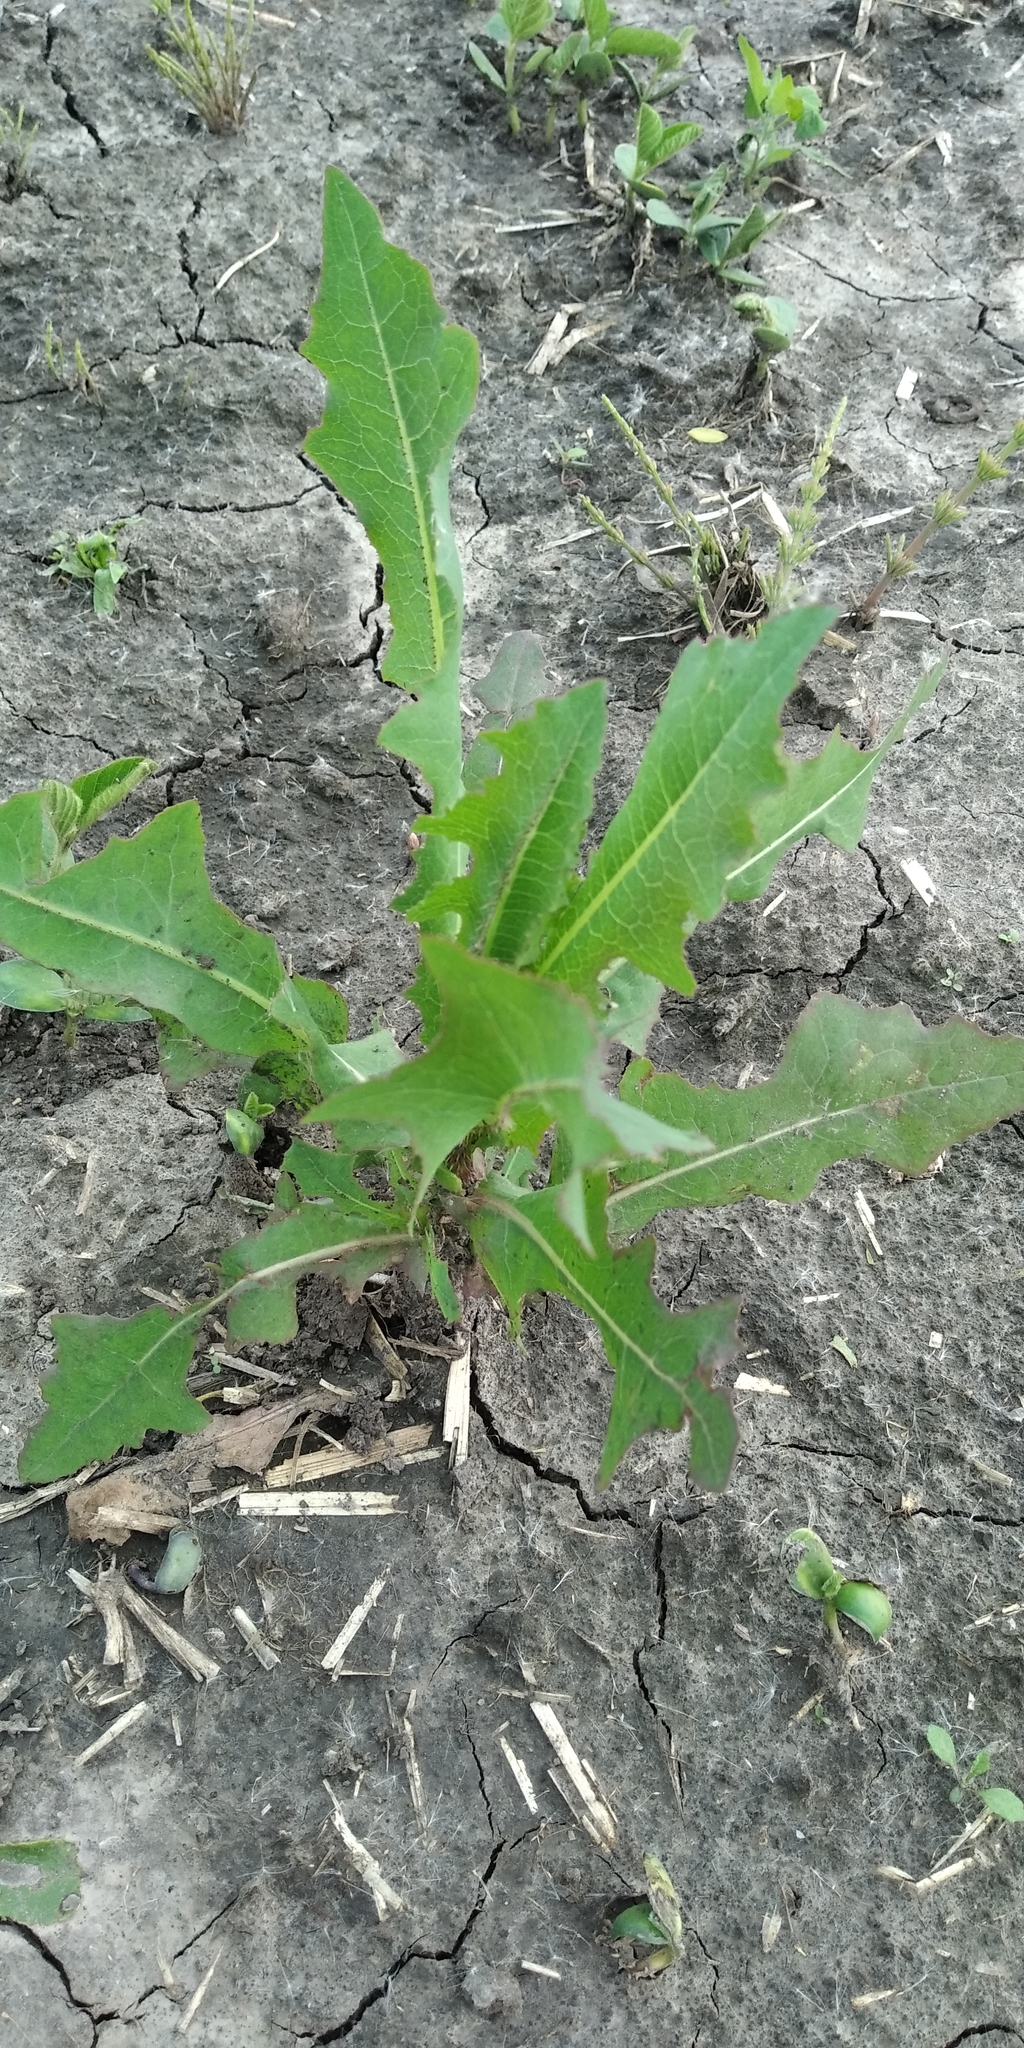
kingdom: Plantae
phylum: Tracheophyta
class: Magnoliopsida
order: Asterales
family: Asteraceae
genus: Lactuca
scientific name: Lactuca serriola
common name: Prickly lettuce
